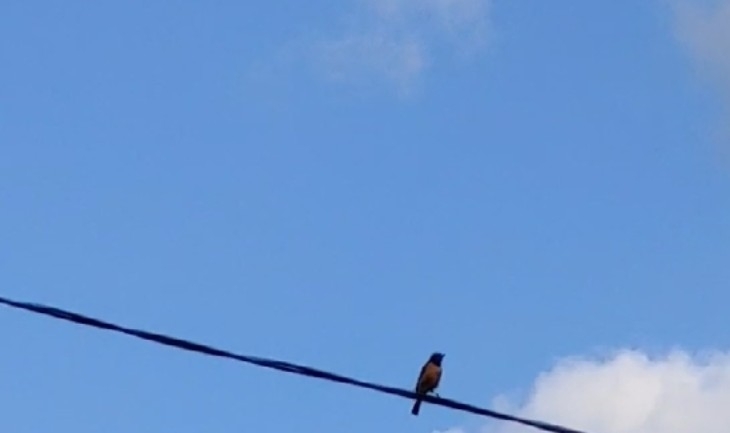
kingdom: Animalia
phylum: Chordata
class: Aves
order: Passeriformes
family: Muscicapidae
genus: Phoenicurus
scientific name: Phoenicurus auroreus
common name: Daurian redstart
